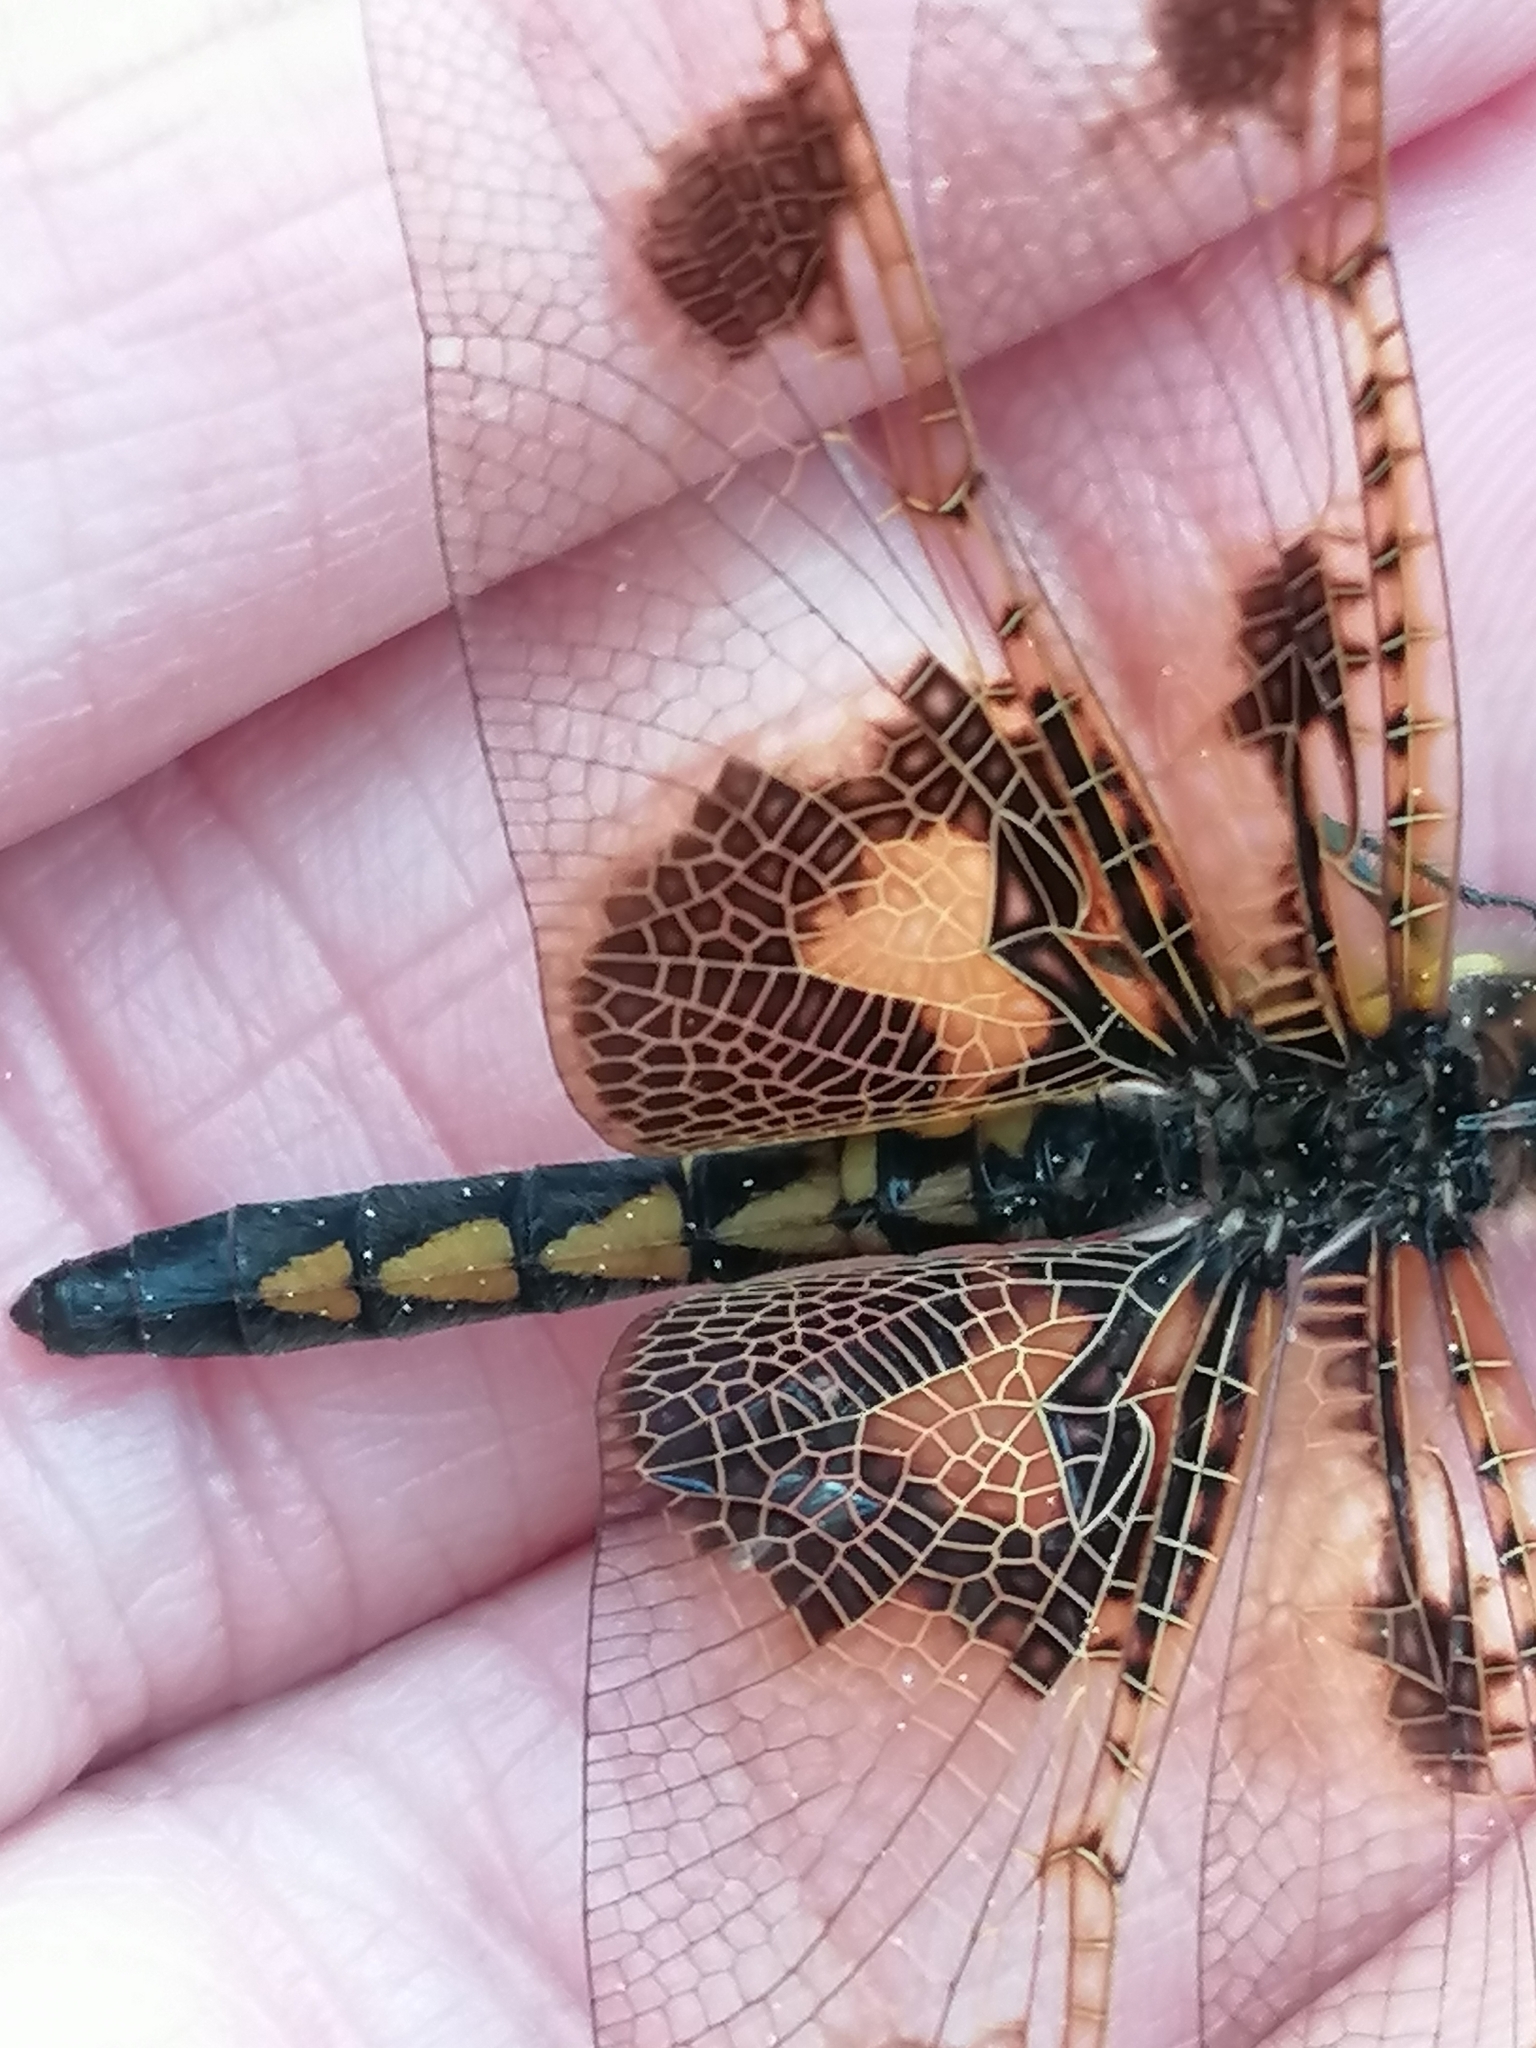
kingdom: Animalia
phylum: Arthropoda
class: Insecta
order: Odonata
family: Libellulidae
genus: Celithemis
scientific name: Celithemis elisa
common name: Calico pennant
